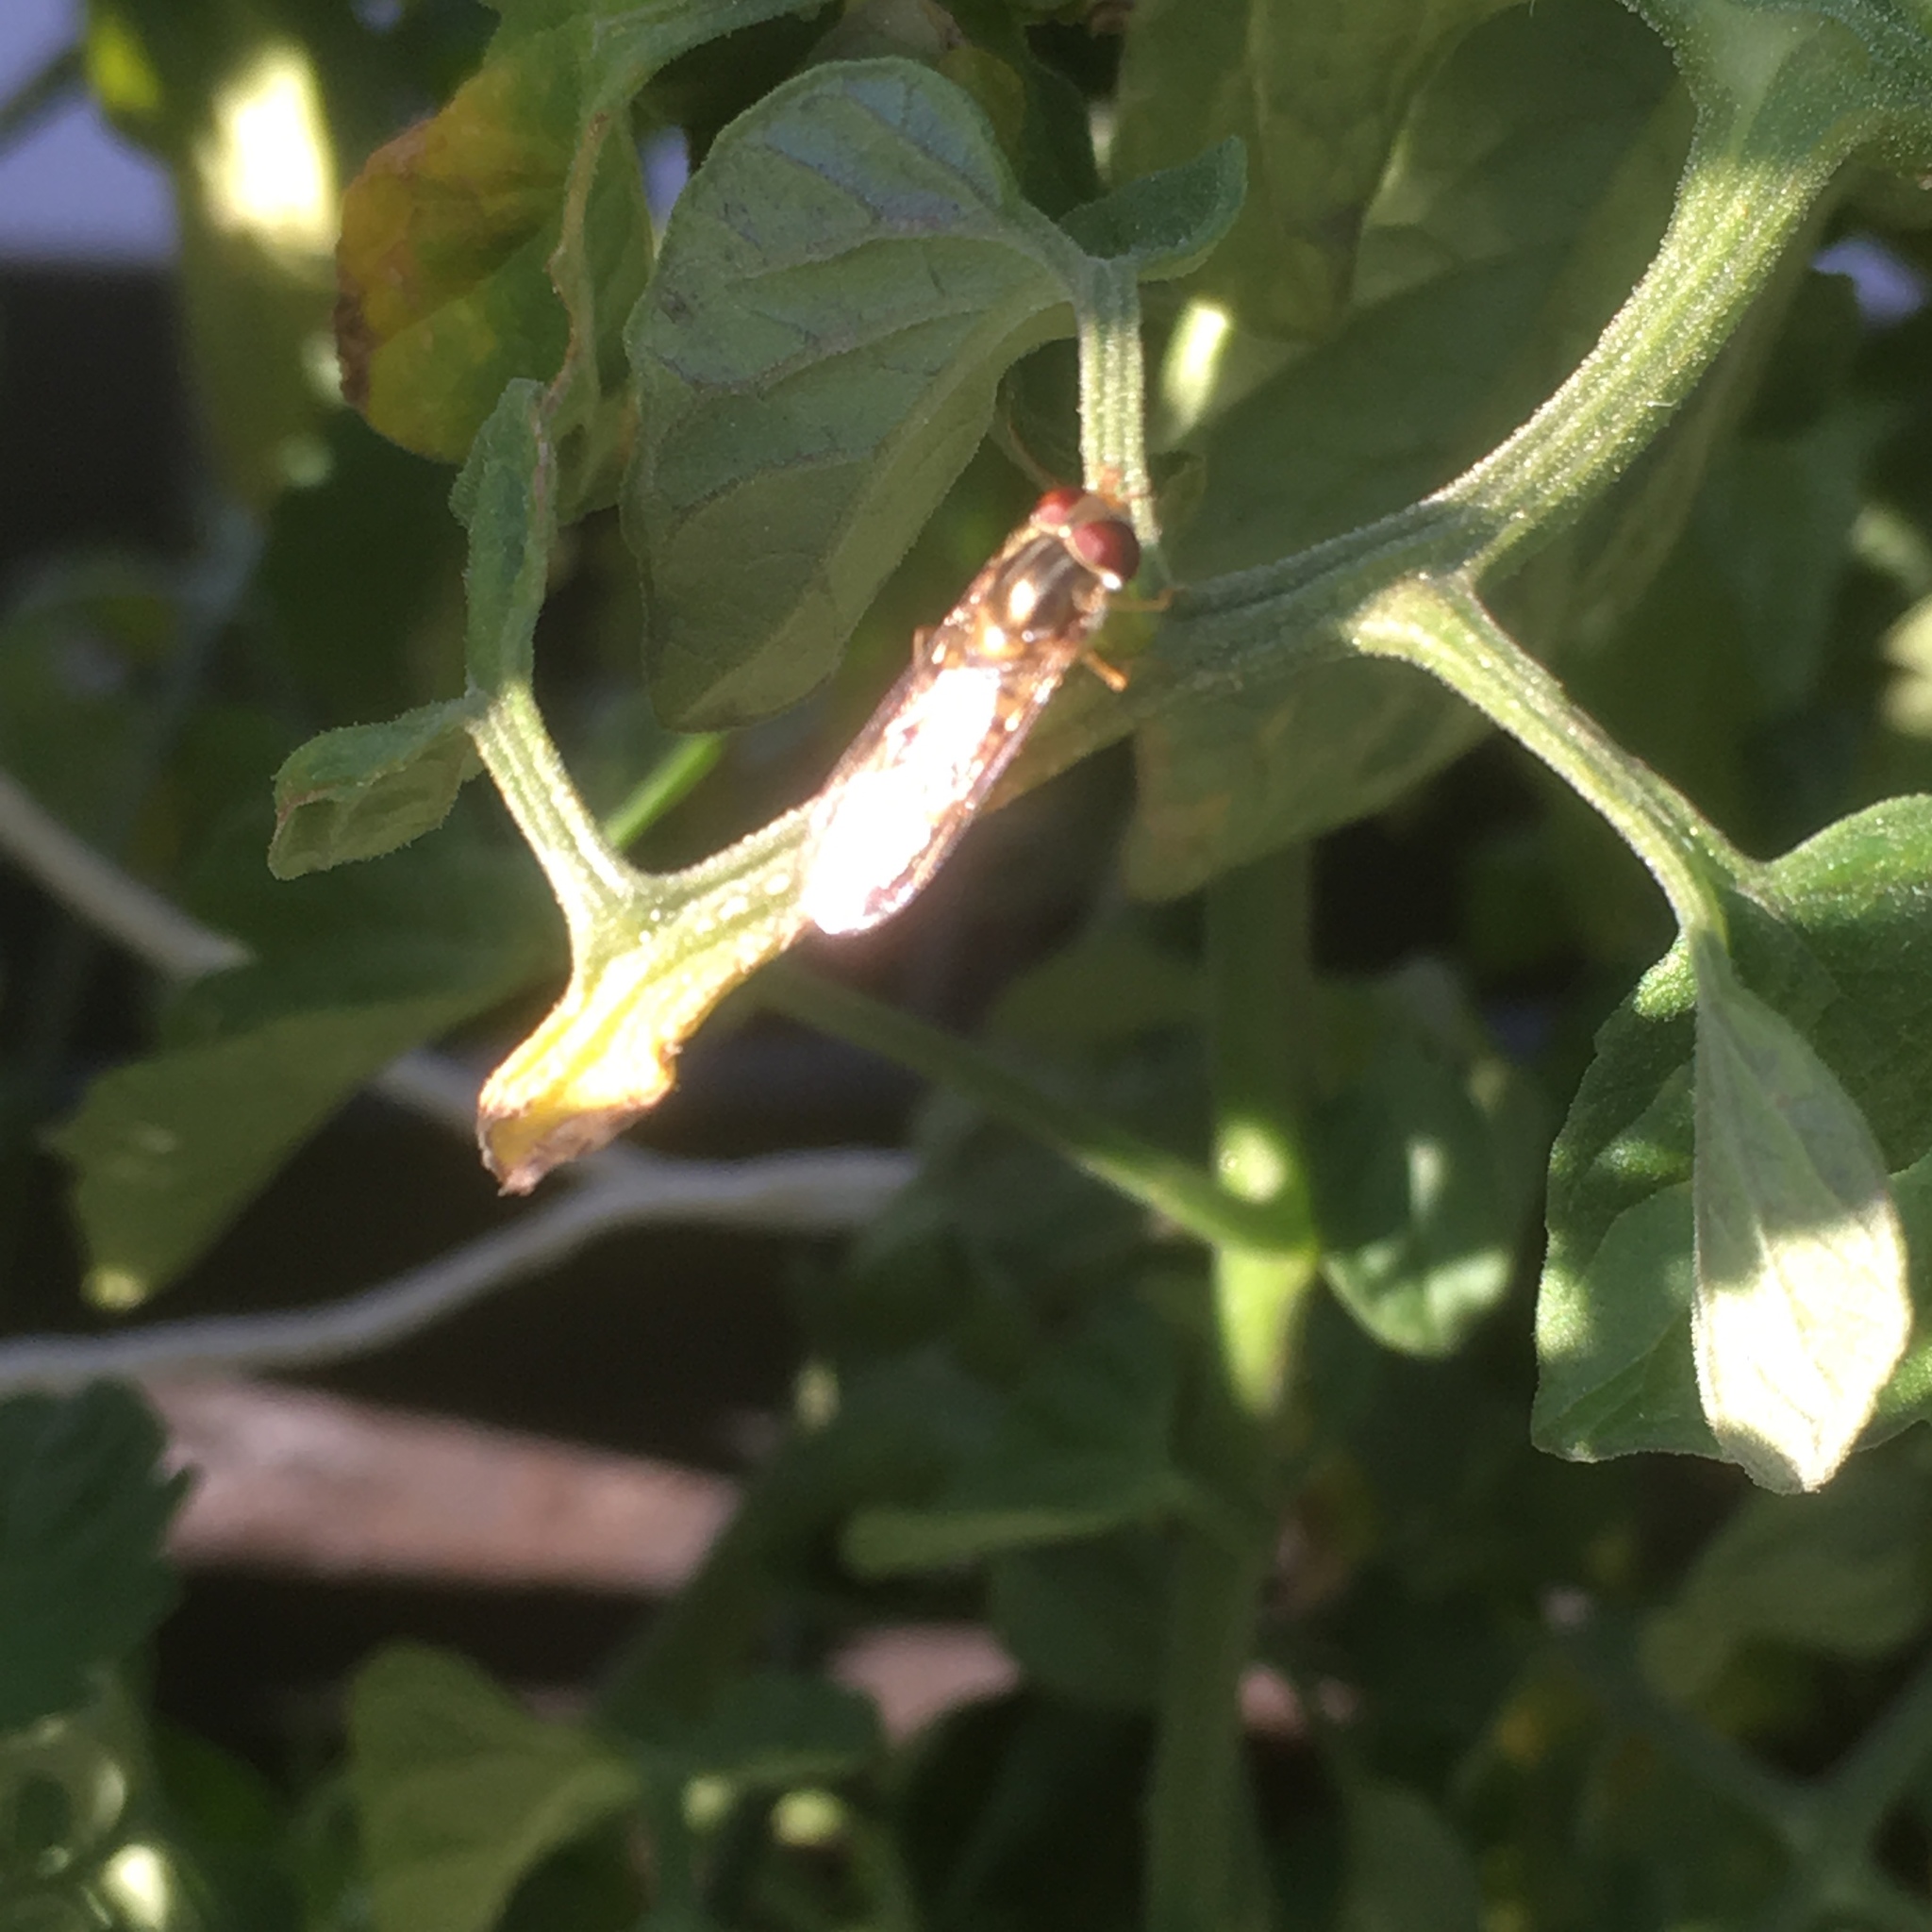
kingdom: Animalia
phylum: Arthropoda
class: Insecta
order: Diptera
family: Syrphidae
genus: Episyrphus
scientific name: Episyrphus balteatus
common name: Marmalade hoverfly
